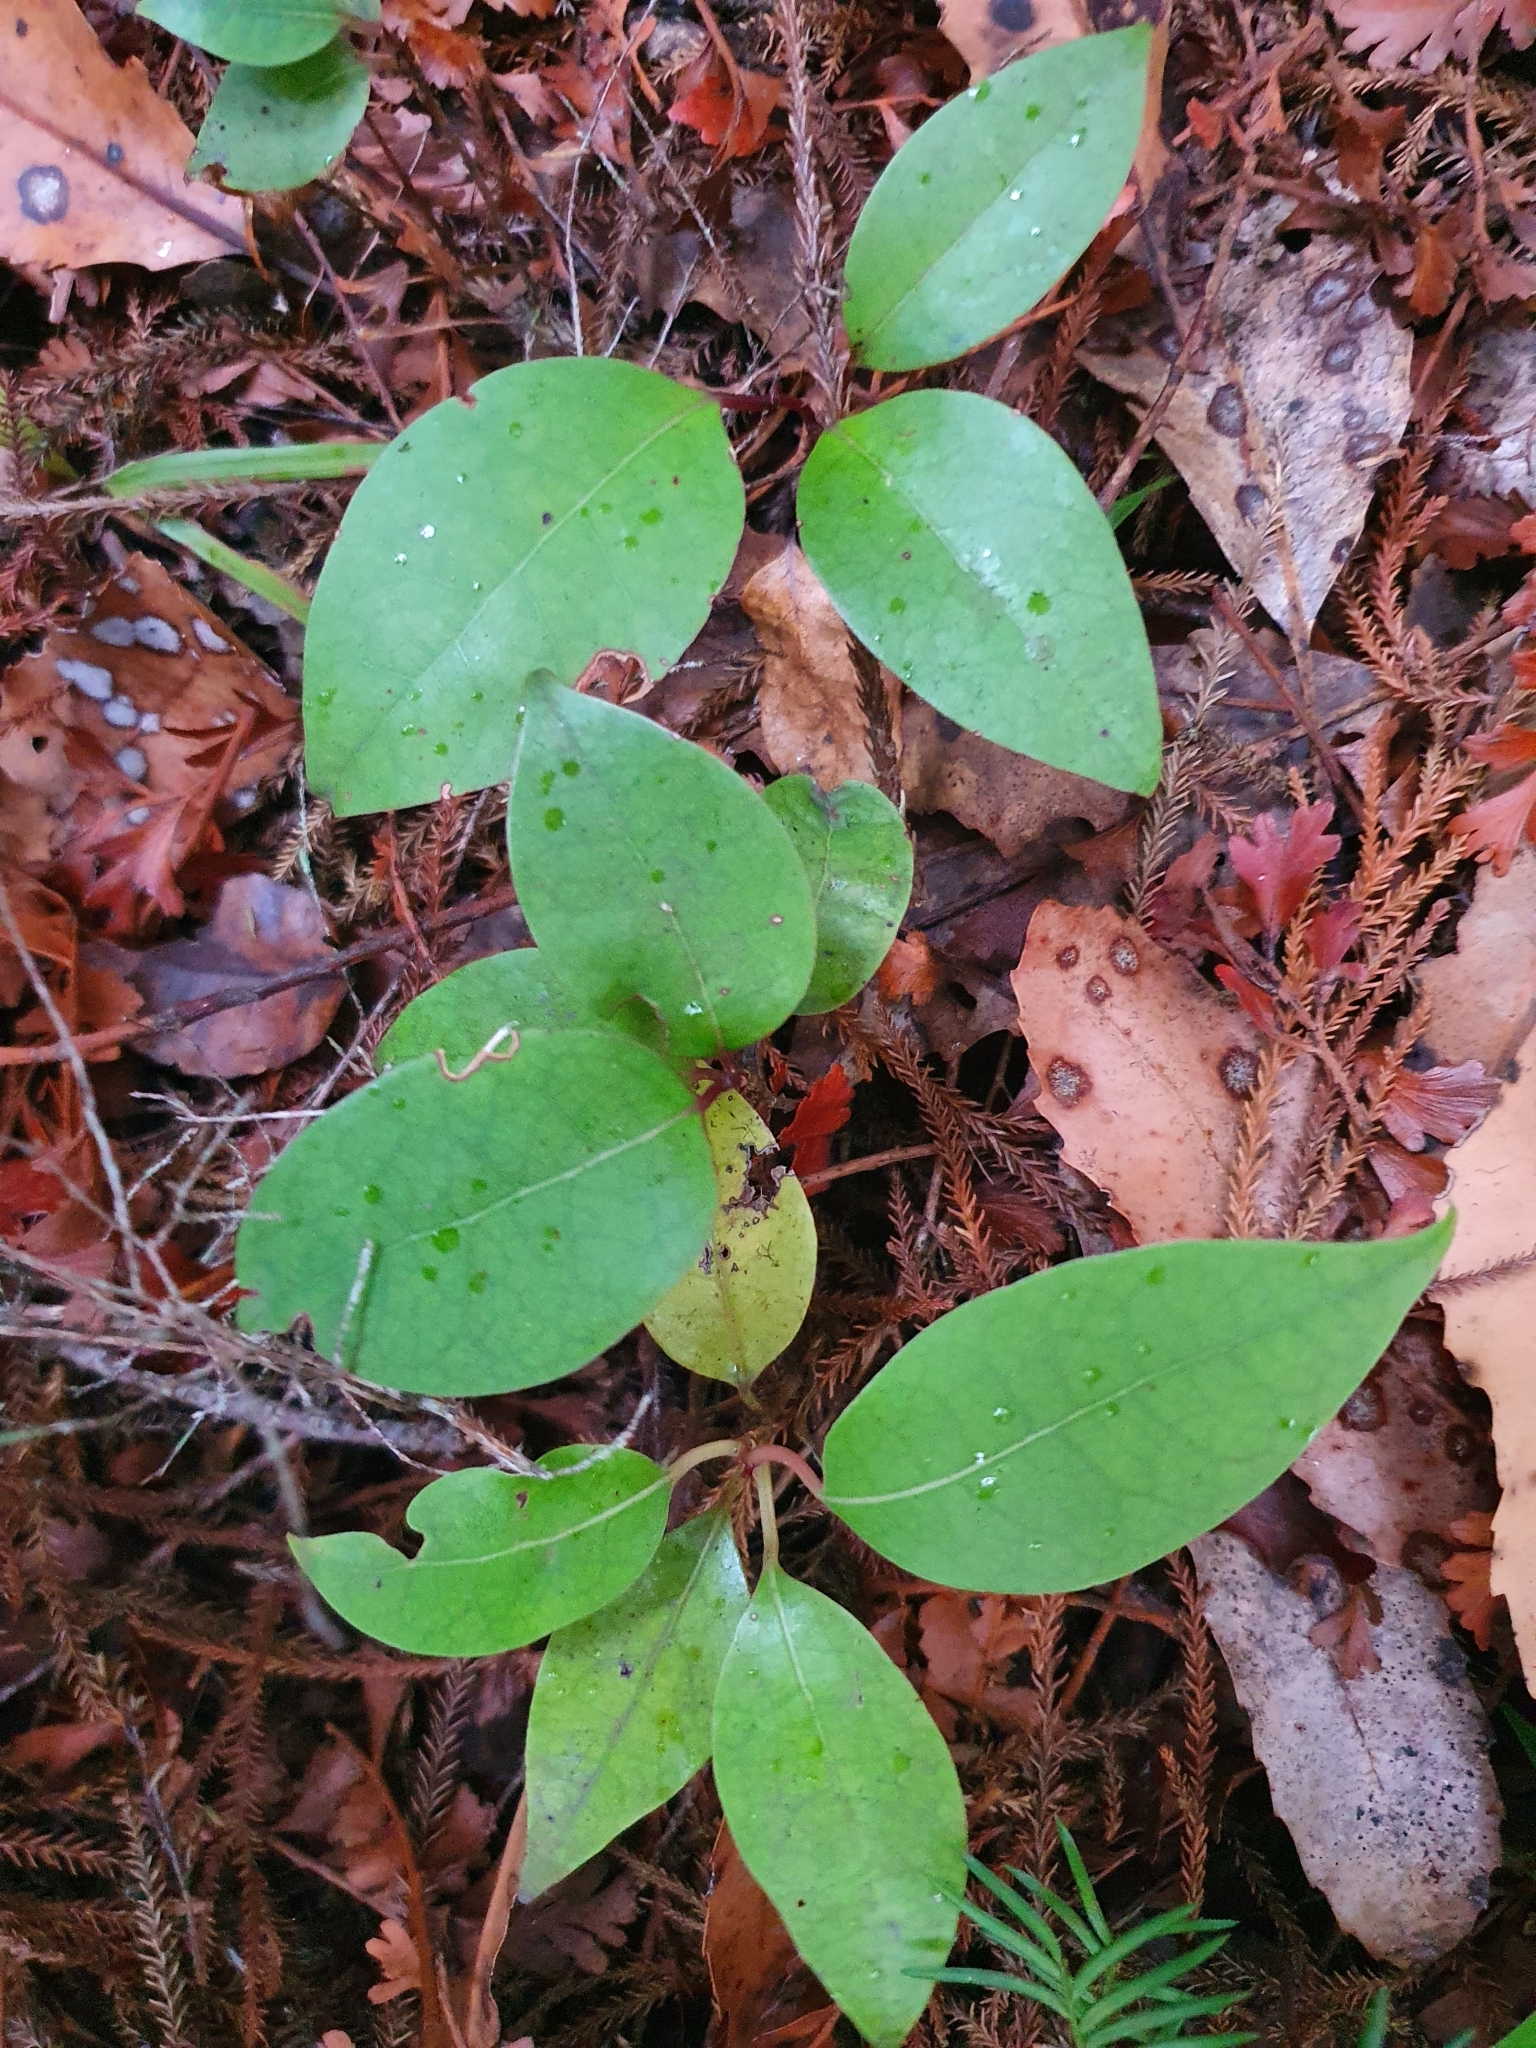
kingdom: Plantae
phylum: Tracheophyta
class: Magnoliopsida
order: Laurales
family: Lauraceae
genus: Litsea
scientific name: Litsea calicaris
